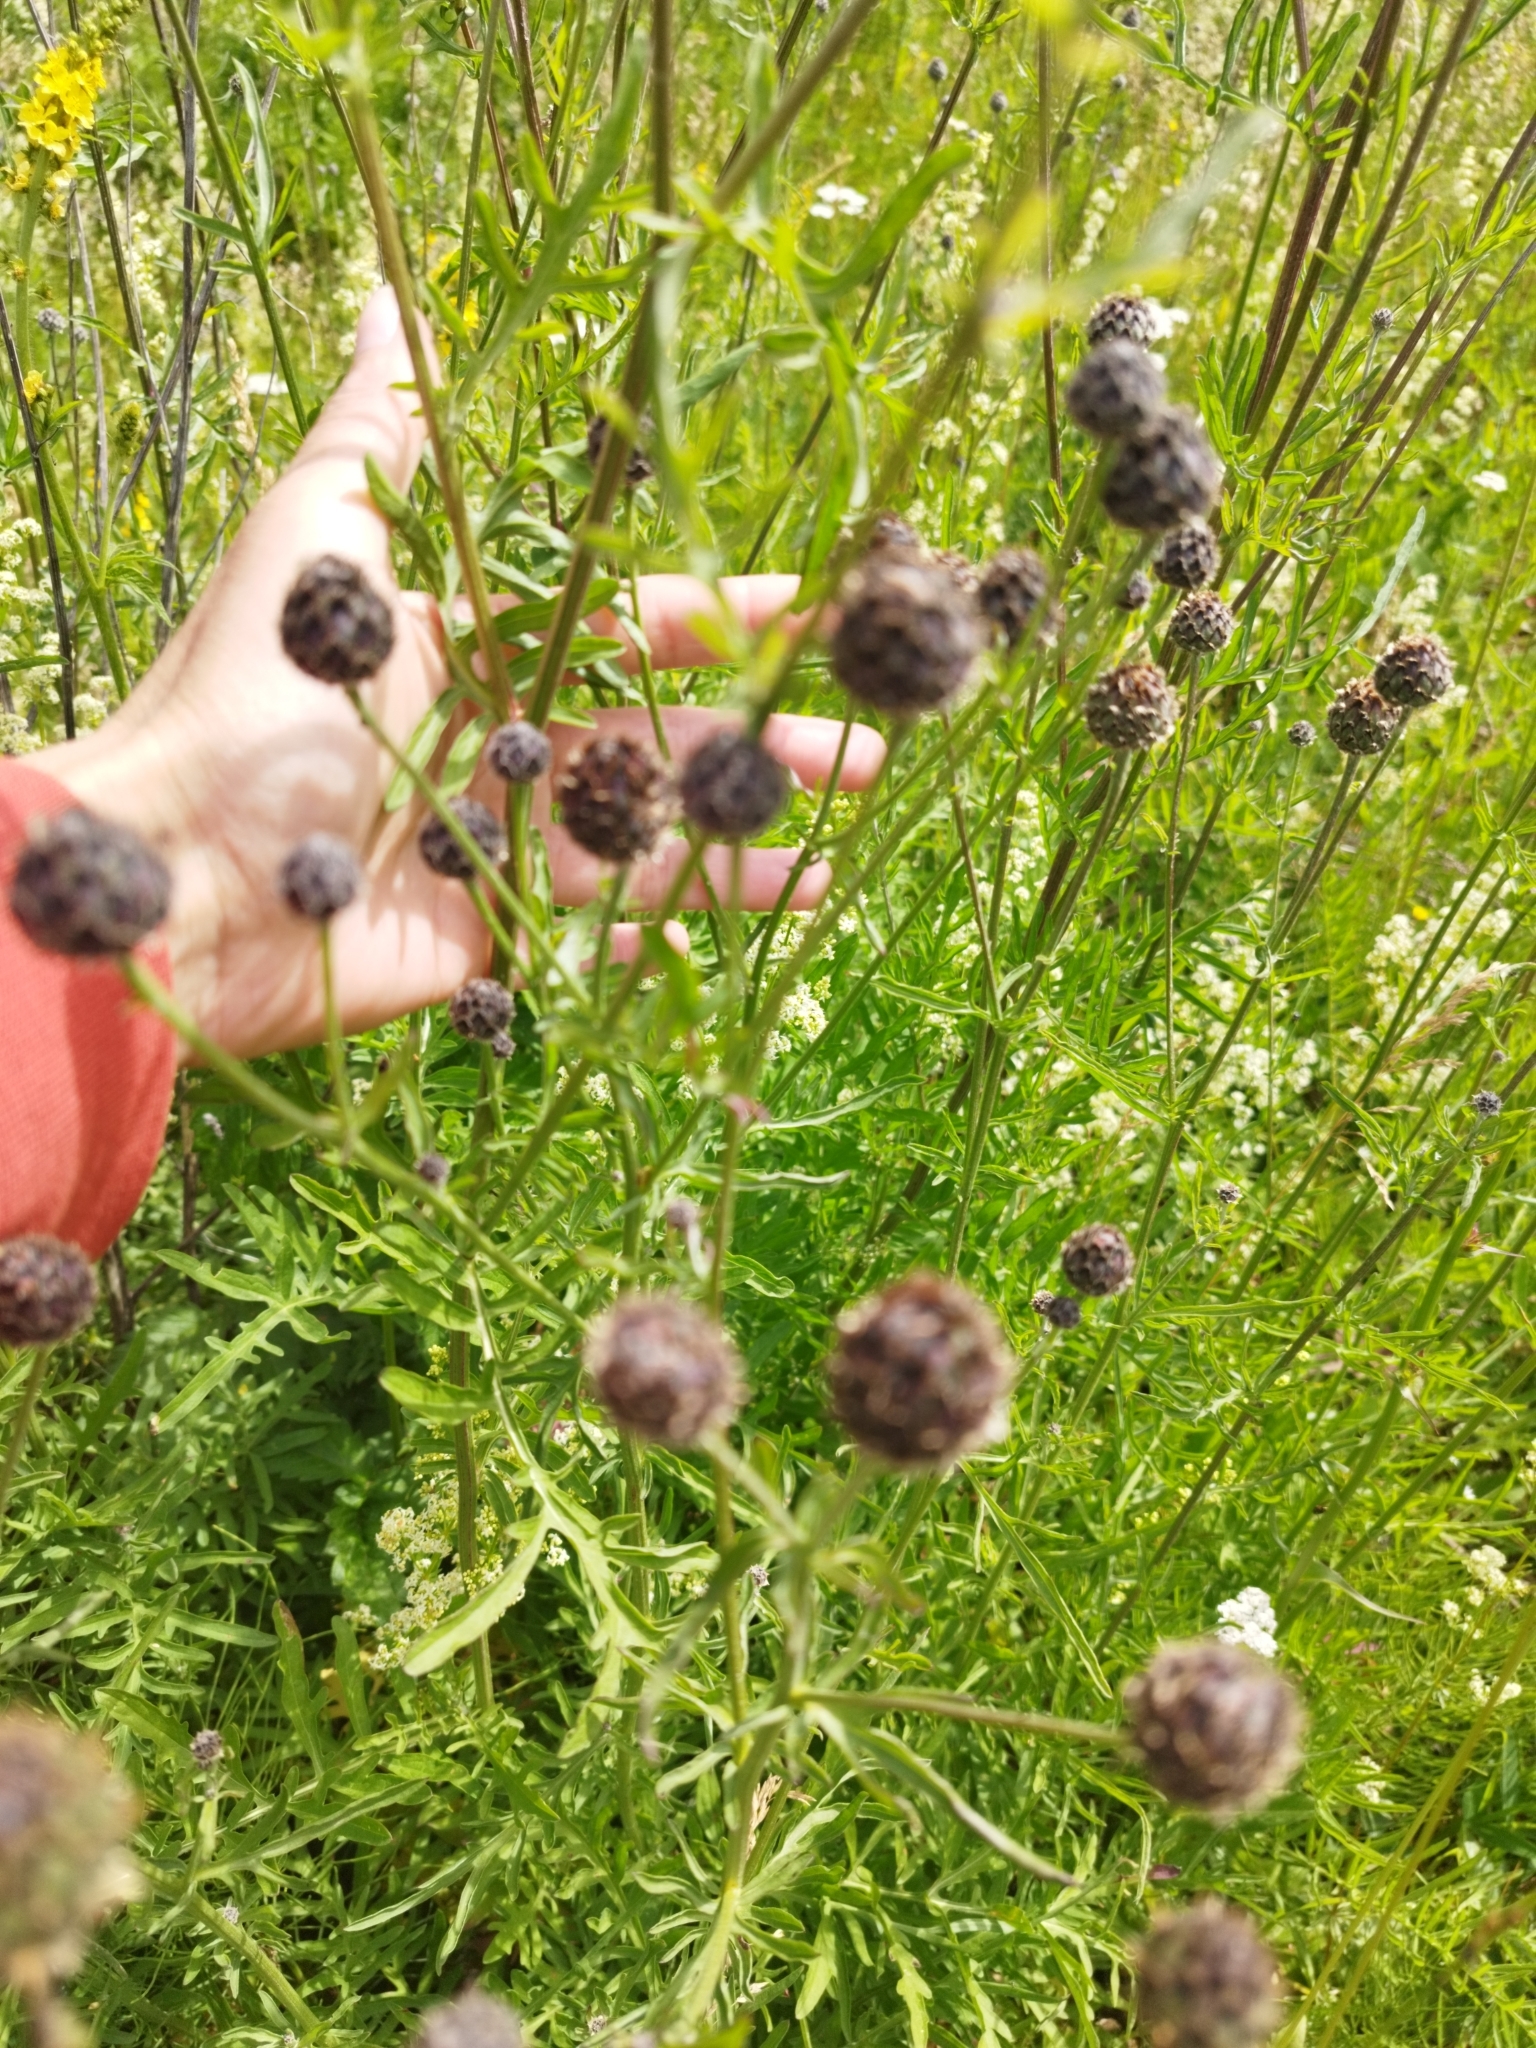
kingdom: Plantae
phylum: Tracheophyta
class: Magnoliopsida
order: Asterales
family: Asteraceae
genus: Centaurea
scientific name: Centaurea scabiosa
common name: Greater knapweed
